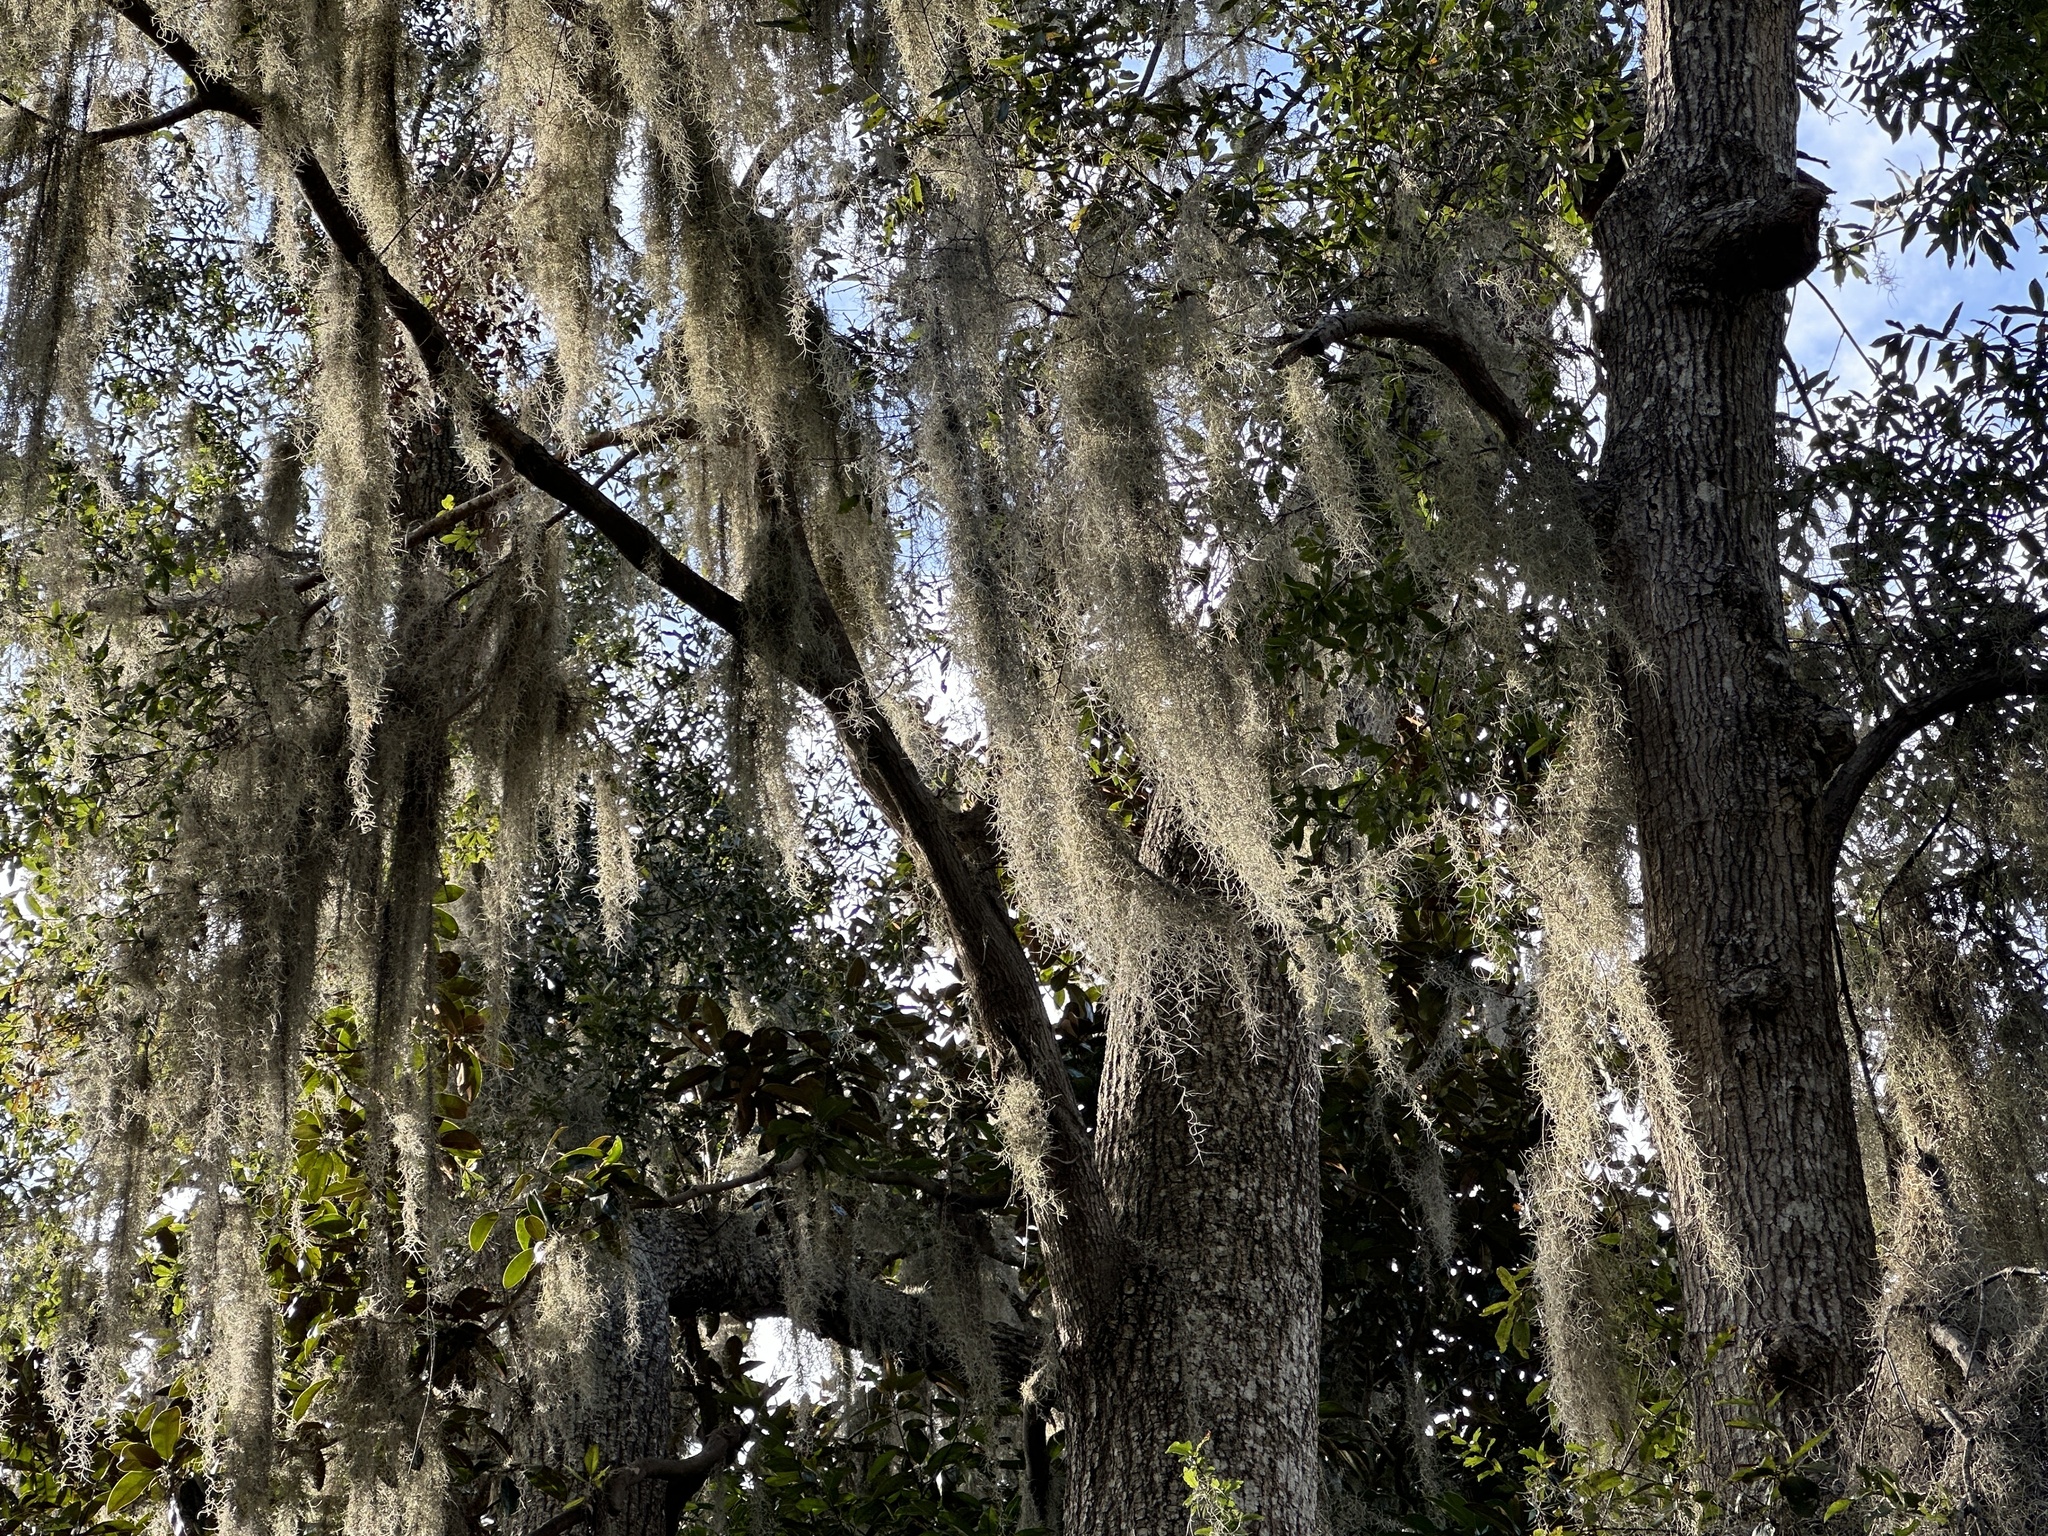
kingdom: Plantae
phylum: Tracheophyta
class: Liliopsida
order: Poales
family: Bromeliaceae
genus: Tillandsia
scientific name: Tillandsia usneoides
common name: Spanish moss
